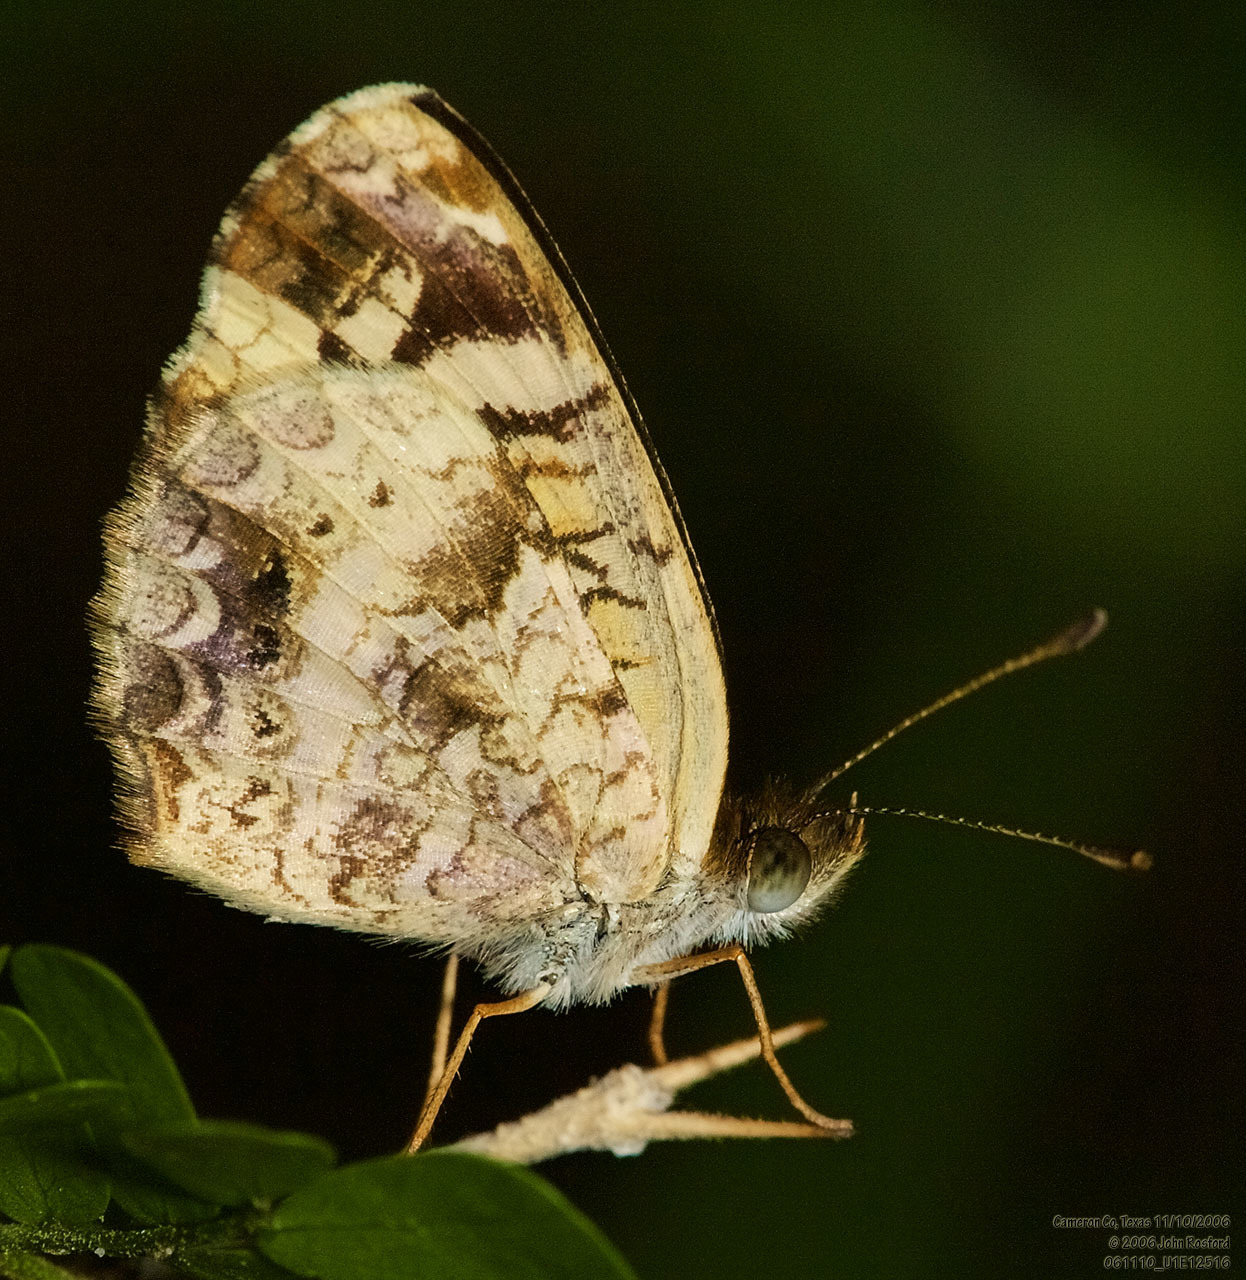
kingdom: Animalia
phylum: Arthropoda
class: Insecta
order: Lepidoptera
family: Nymphalidae
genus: Anthanassa
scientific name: Anthanassa tulcis
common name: Pale-banded crescent
